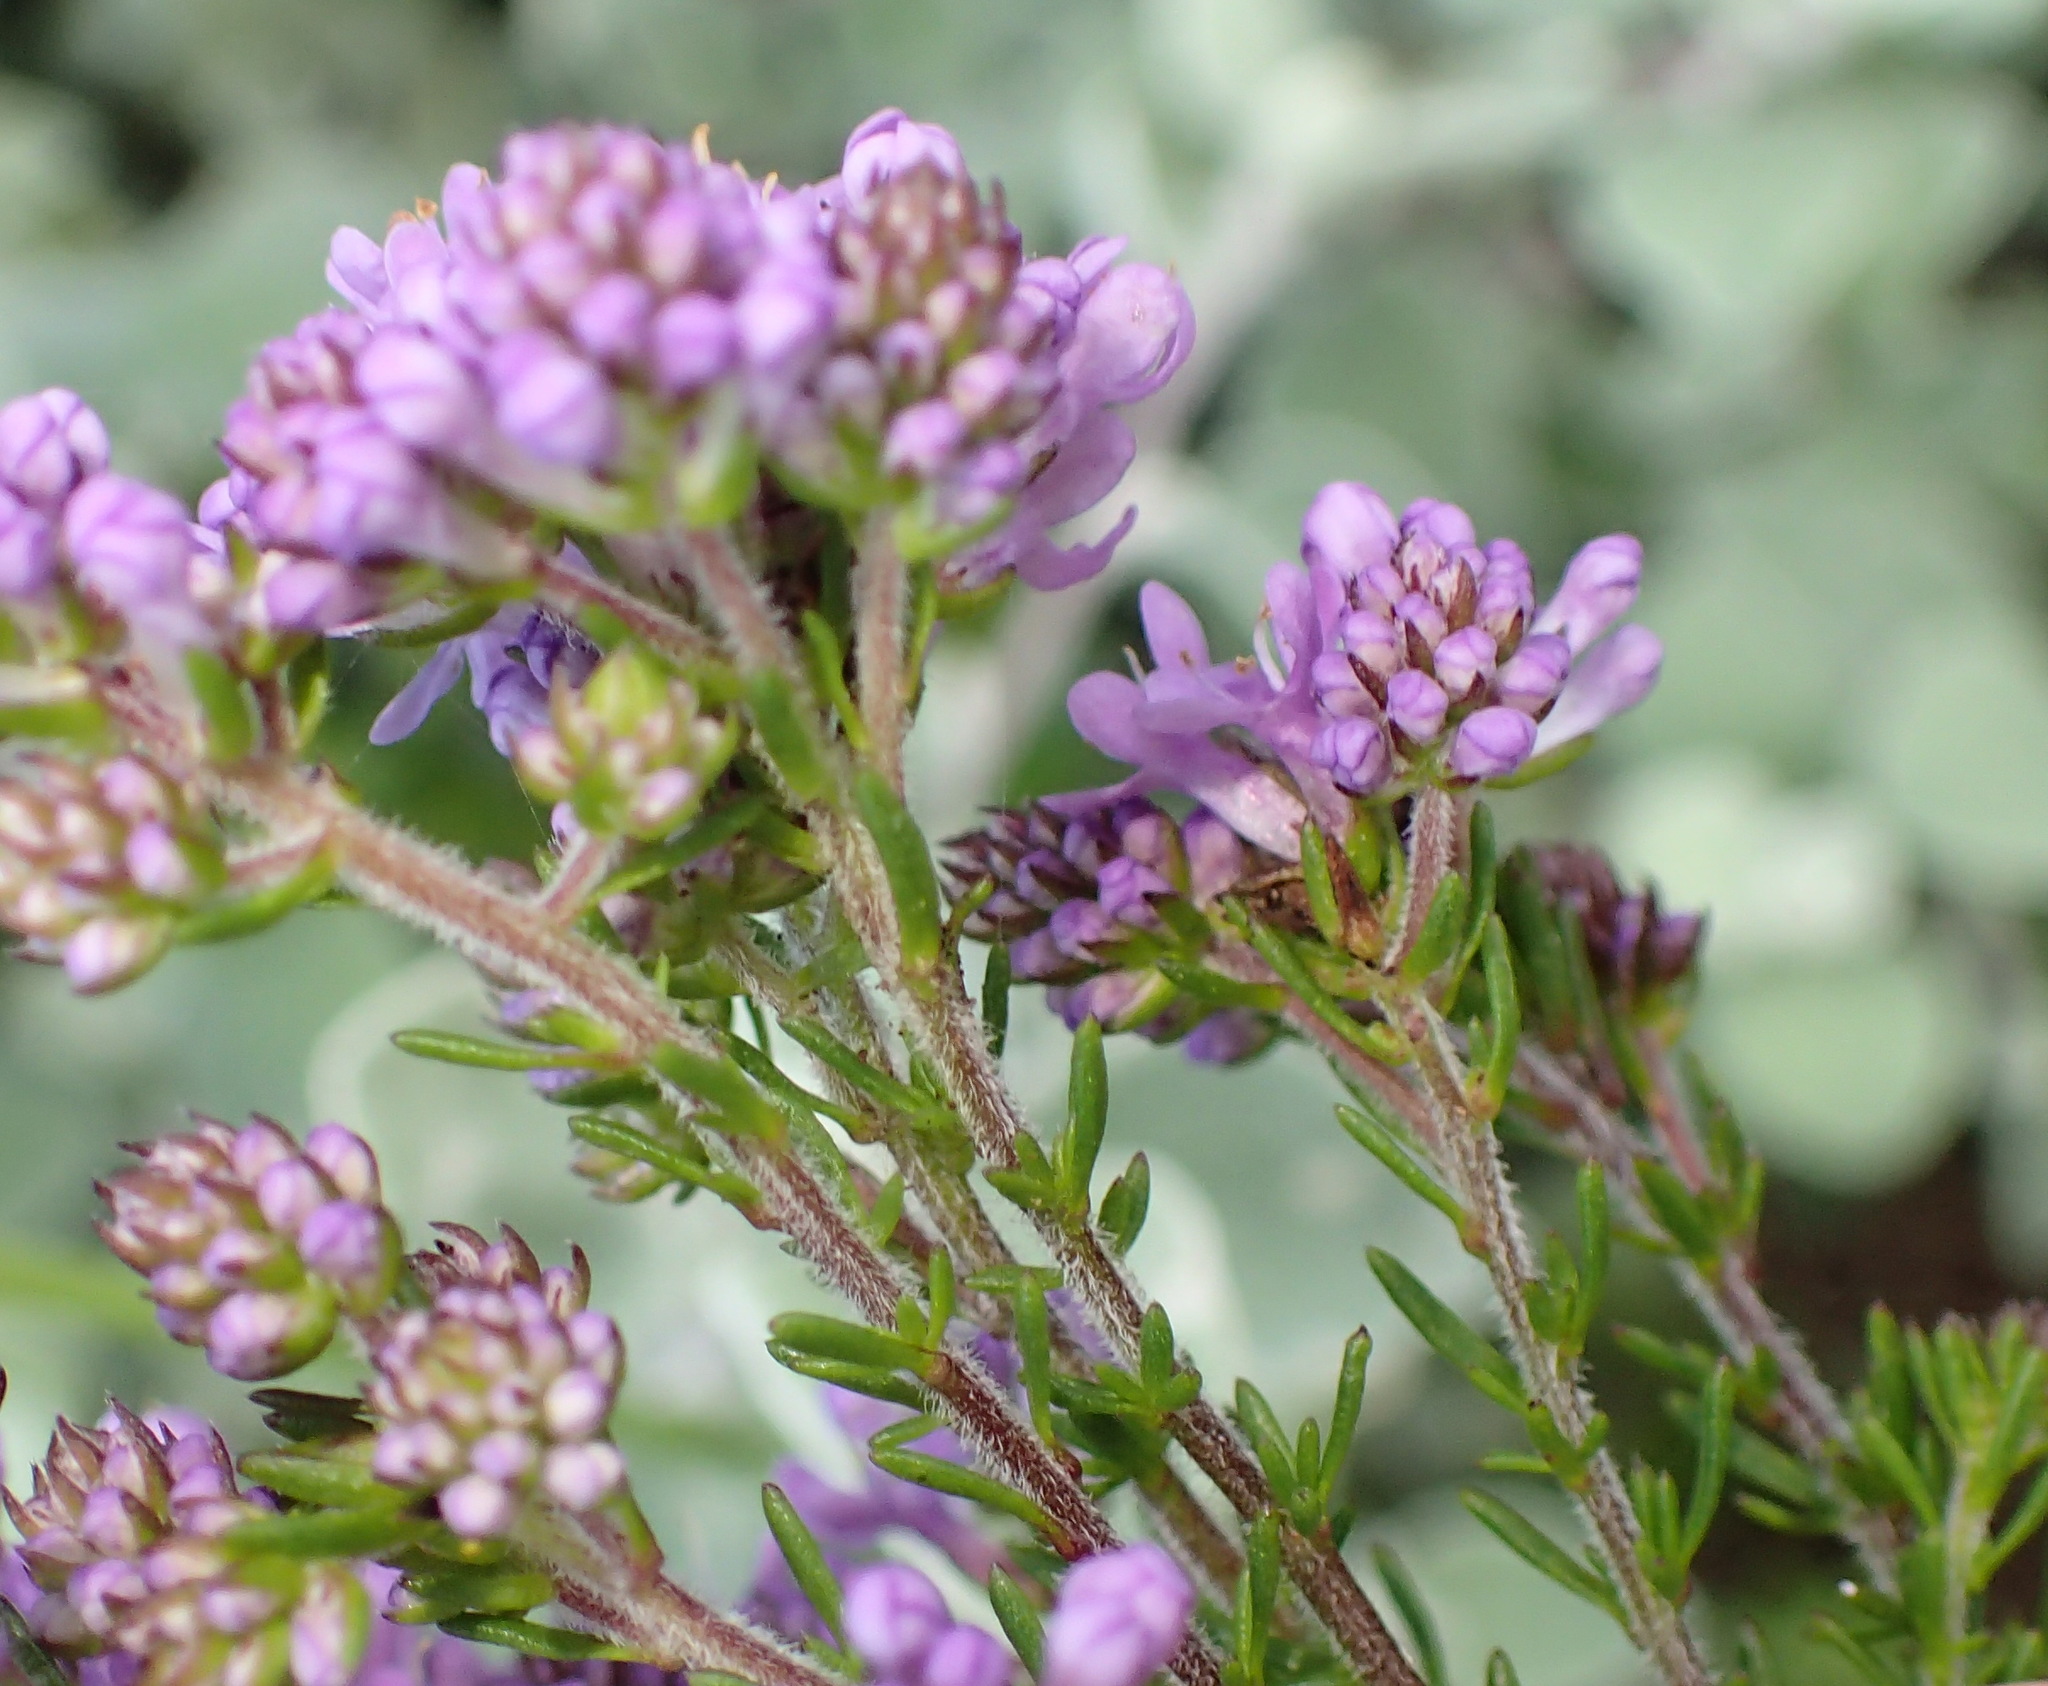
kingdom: Plantae
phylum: Tracheophyta
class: Magnoliopsida
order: Lamiales
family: Scrophulariaceae
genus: Selago
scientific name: Selago villicaulis
